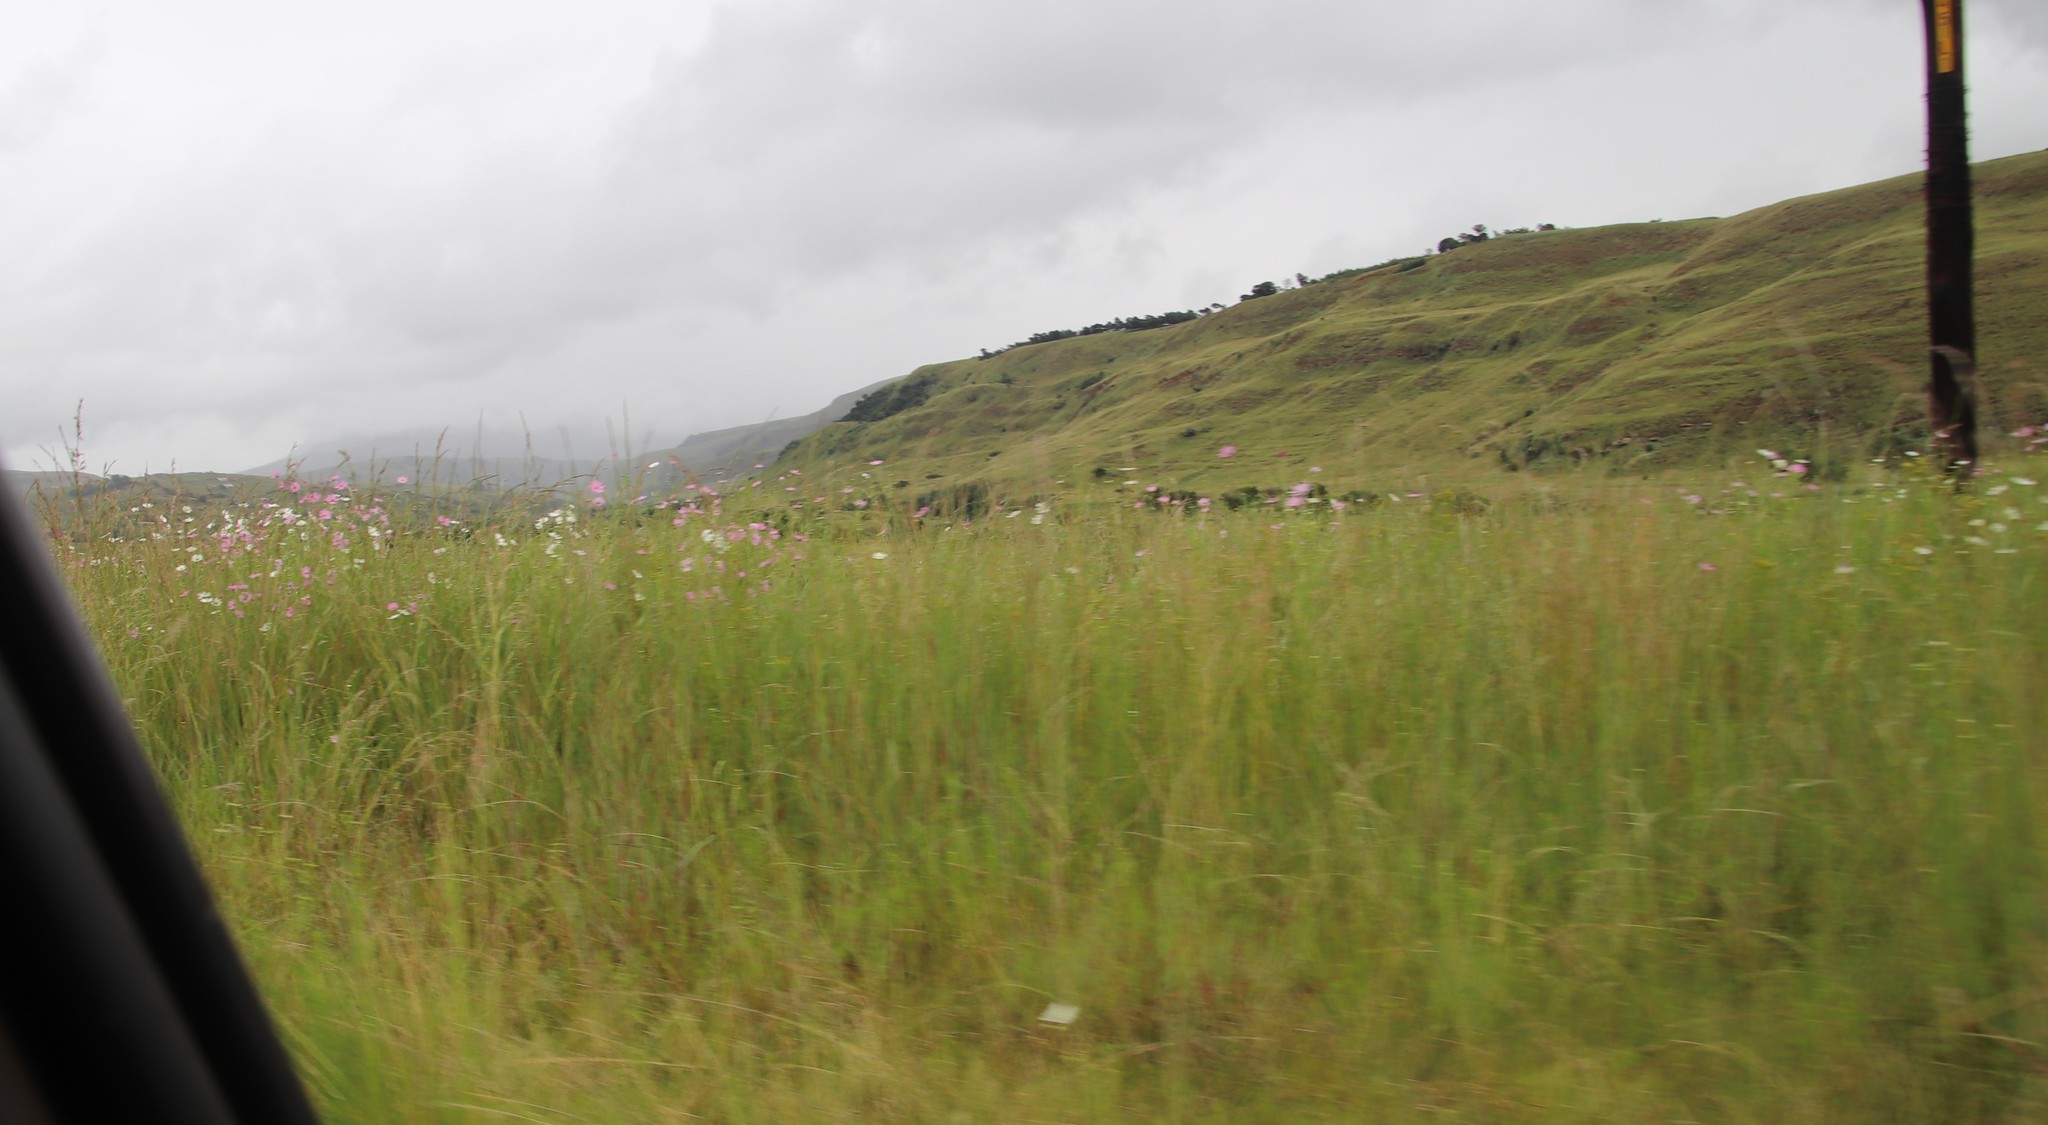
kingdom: Plantae
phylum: Tracheophyta
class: Magnoliopsida
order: Asterales
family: Asteraceae
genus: Cosmos
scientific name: Cosmos bipinnatus
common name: Garden cosmos
